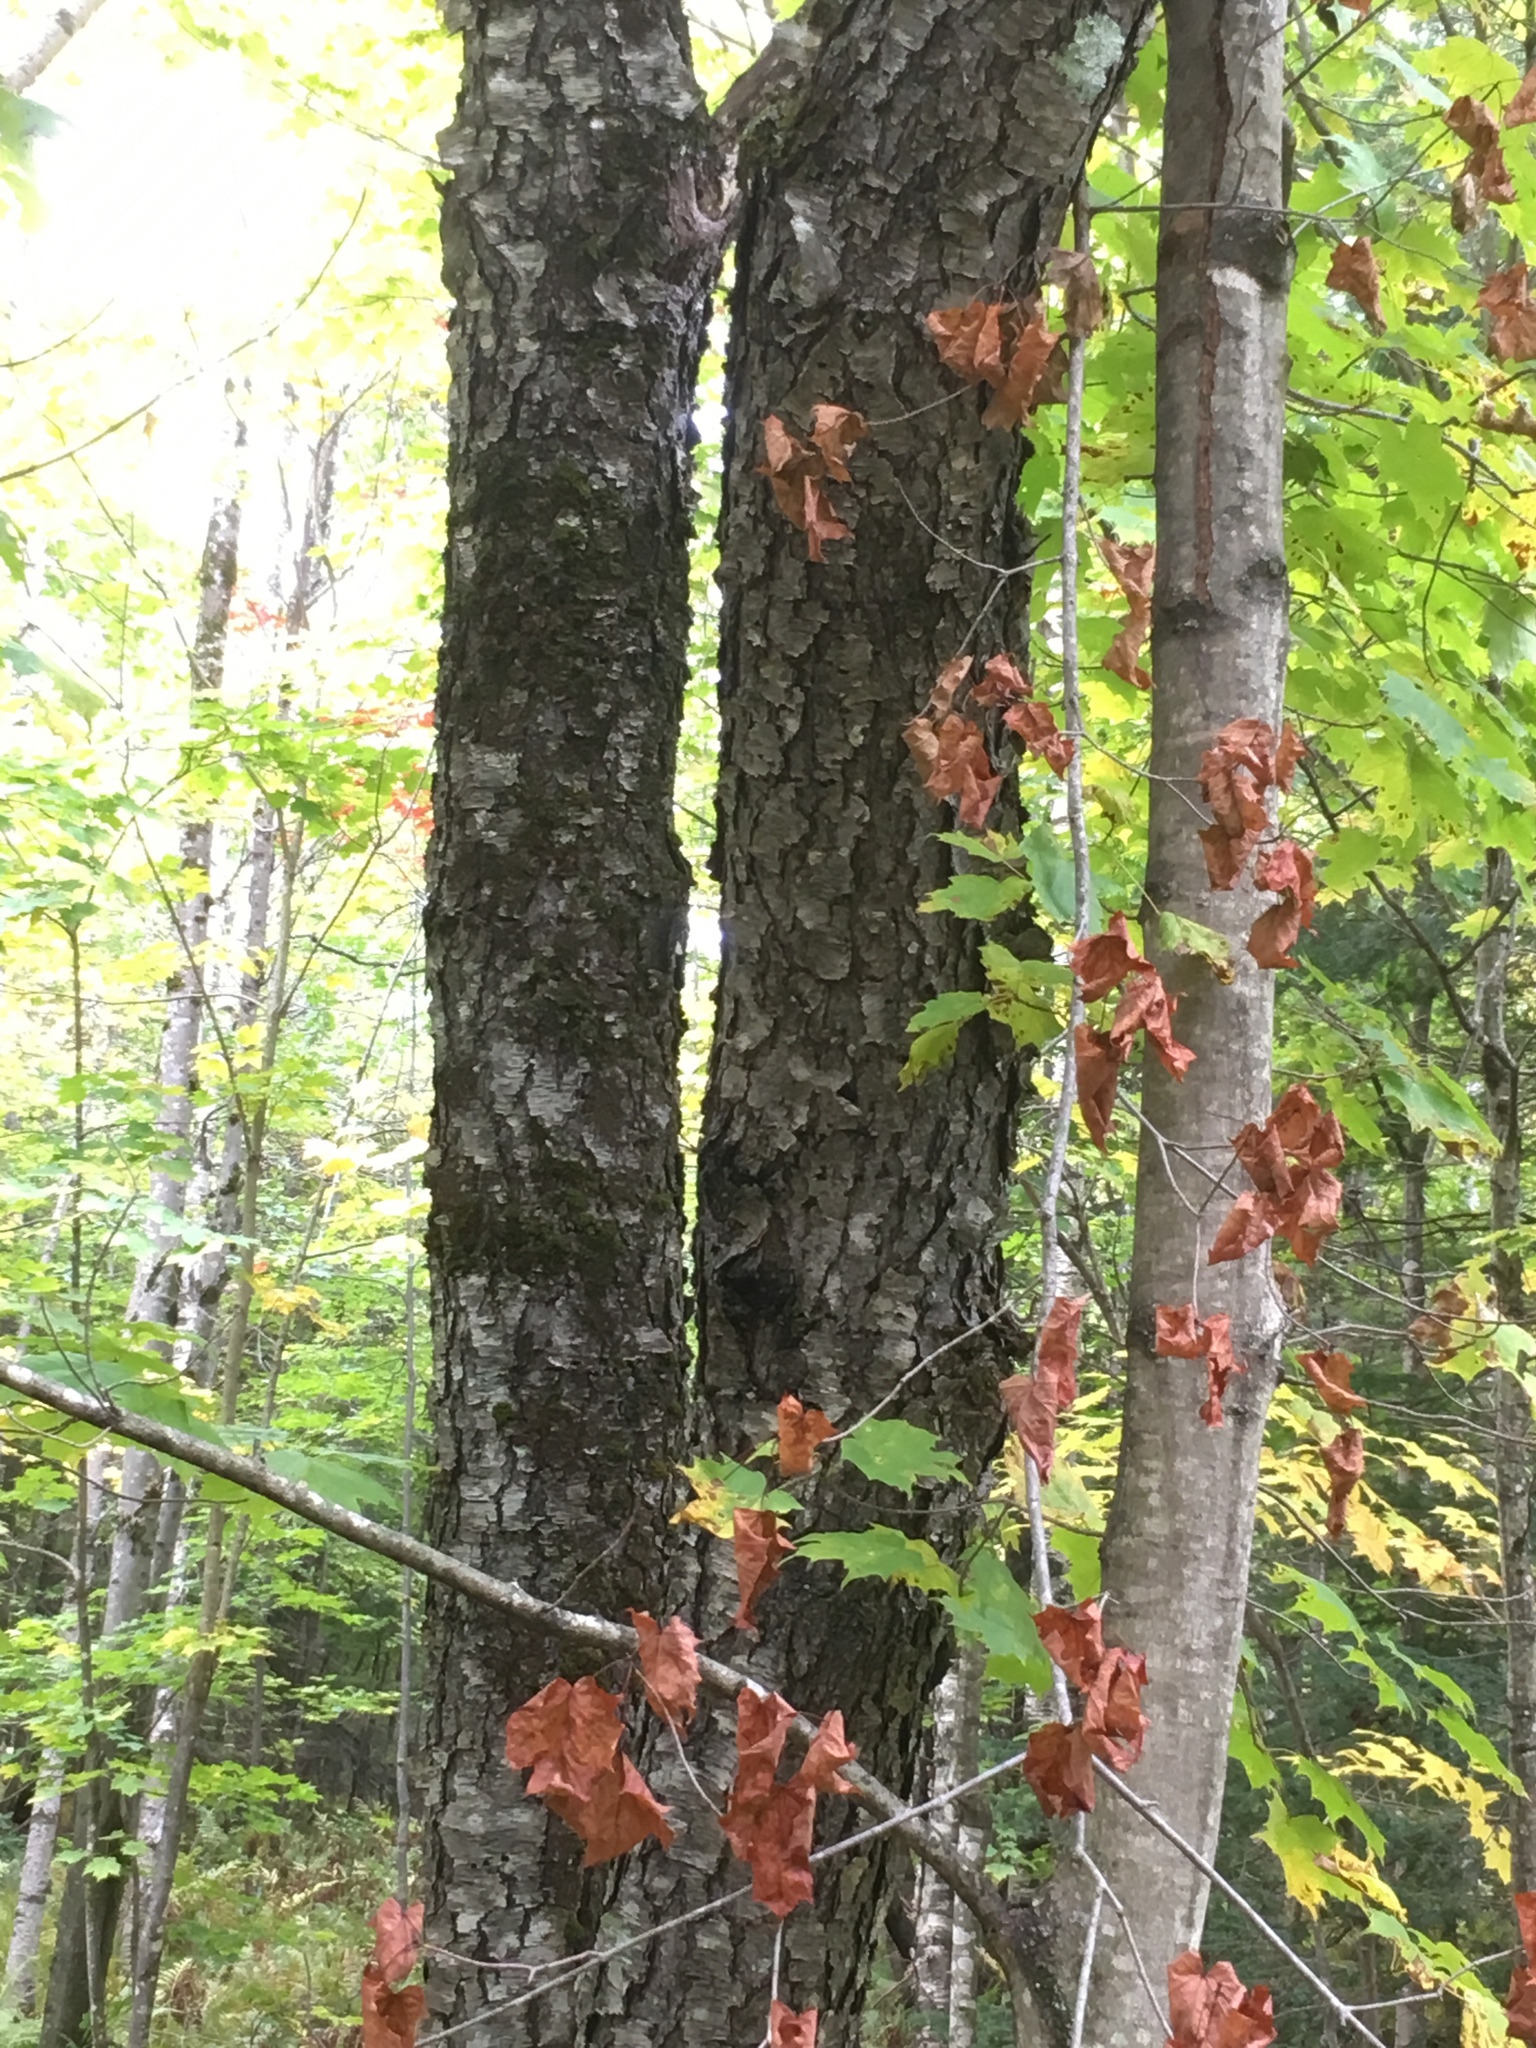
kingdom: Plantae
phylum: Tracheophyta
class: Magnoliopsida
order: Rosales
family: Rosaceae
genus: Prunus
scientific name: Prunus serotina
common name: Black cherry
